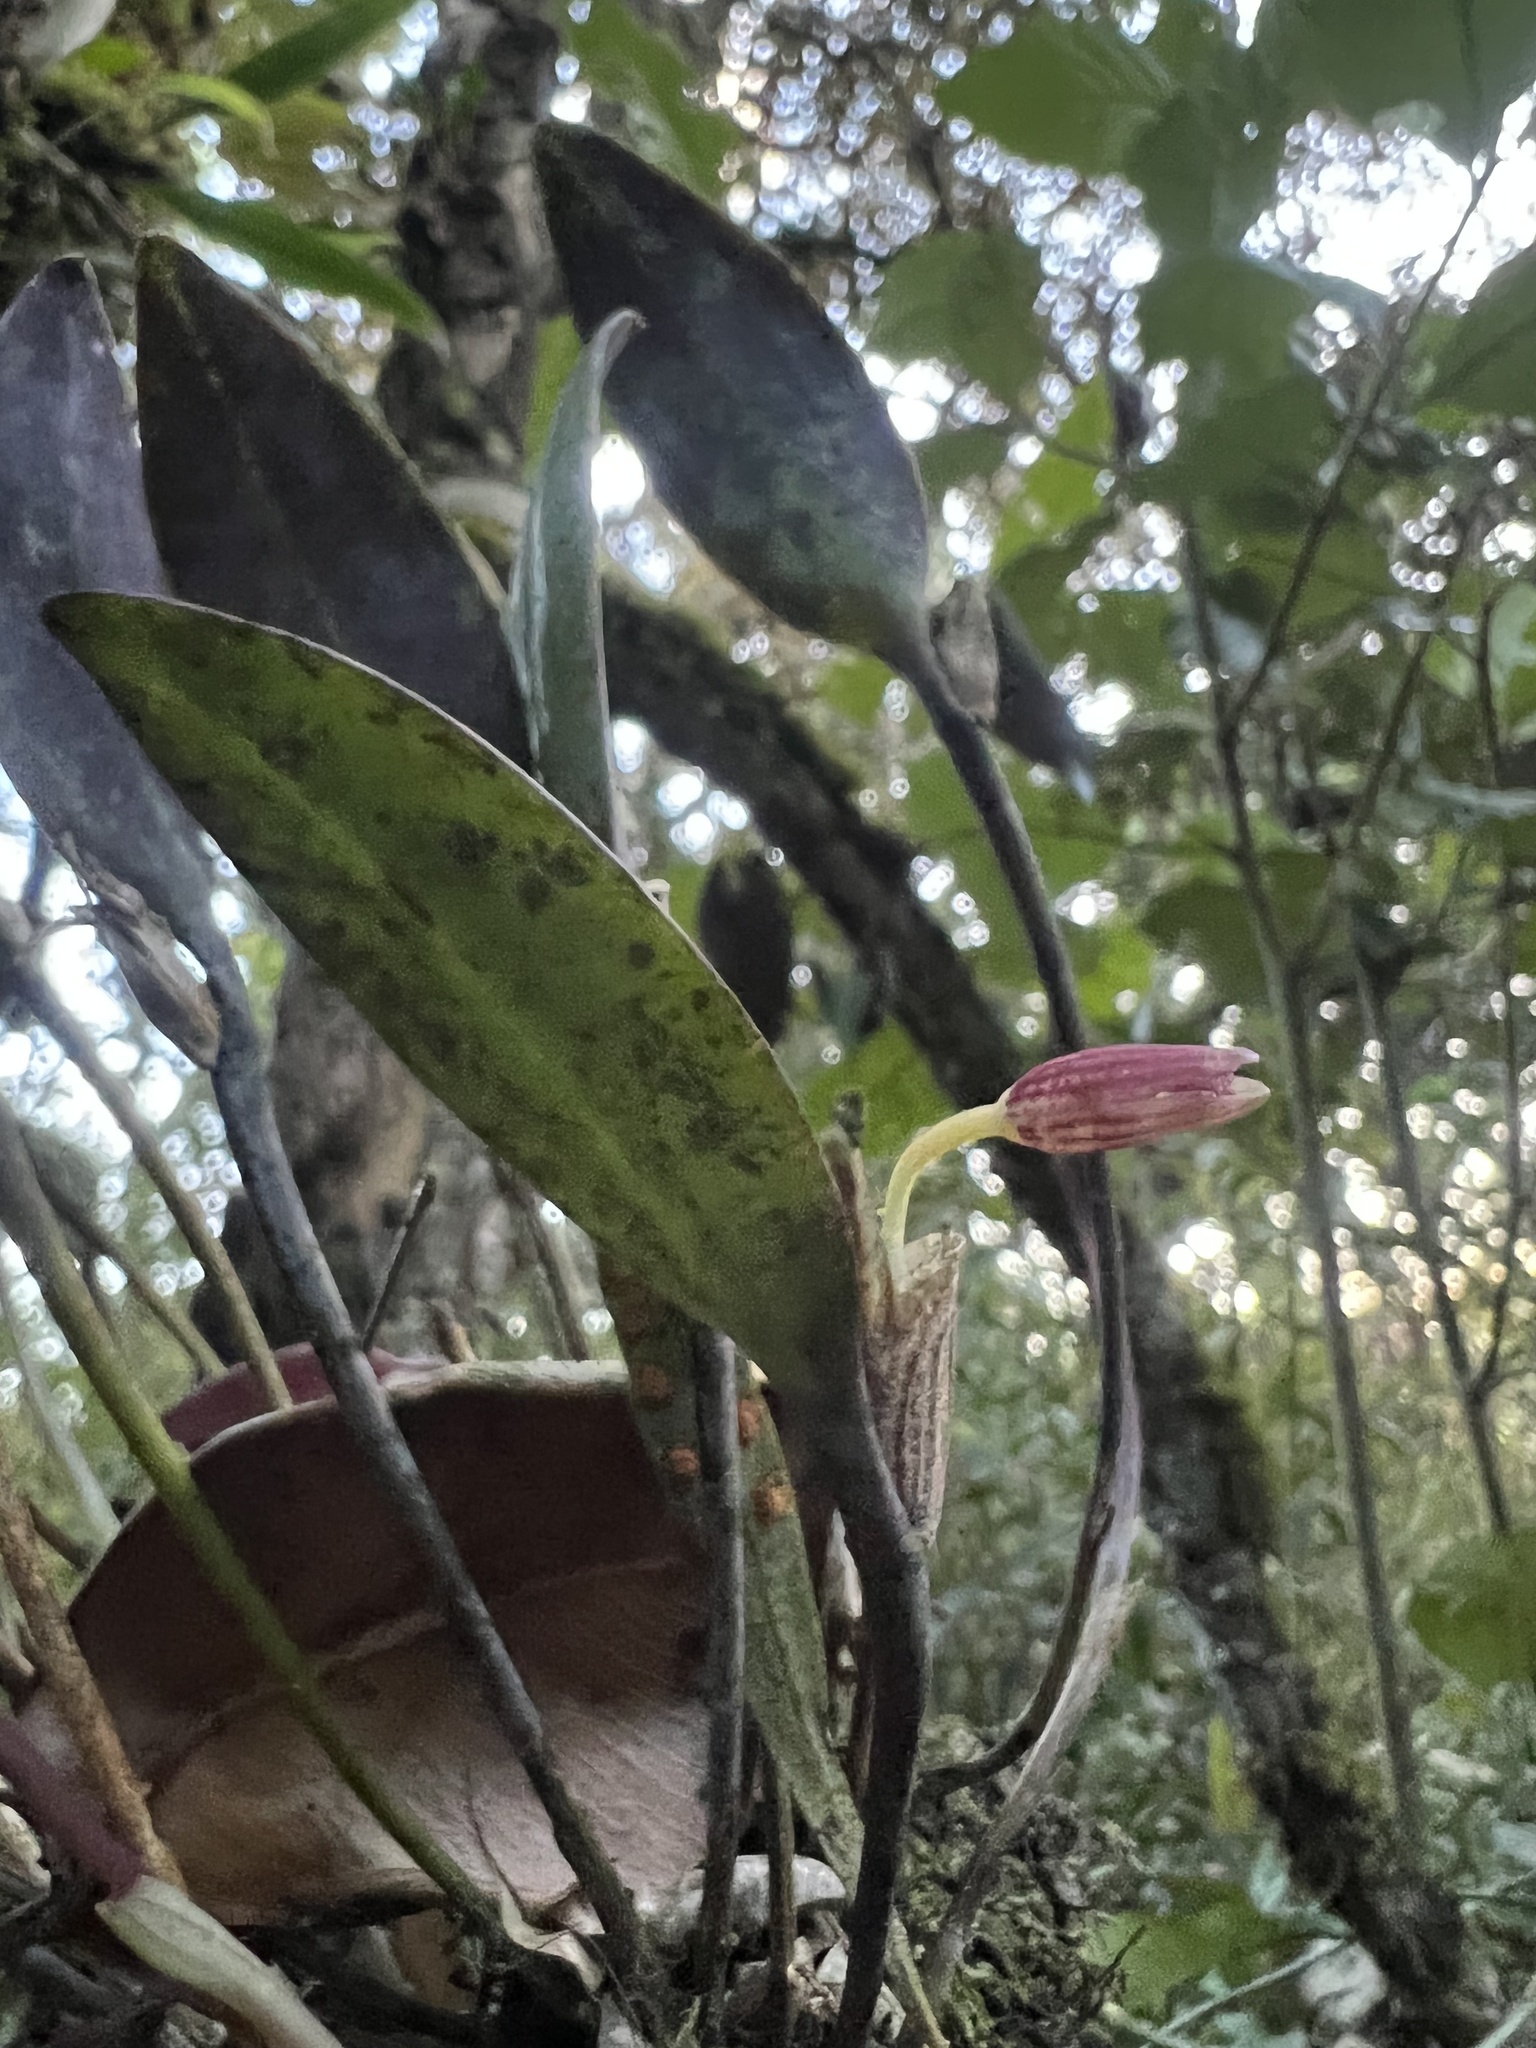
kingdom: Plantae
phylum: Tracheophyta
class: Liliopsida
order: Asparagales
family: Orchidaceae
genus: Pleurothallis
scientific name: Pleurothallis talpinaria
